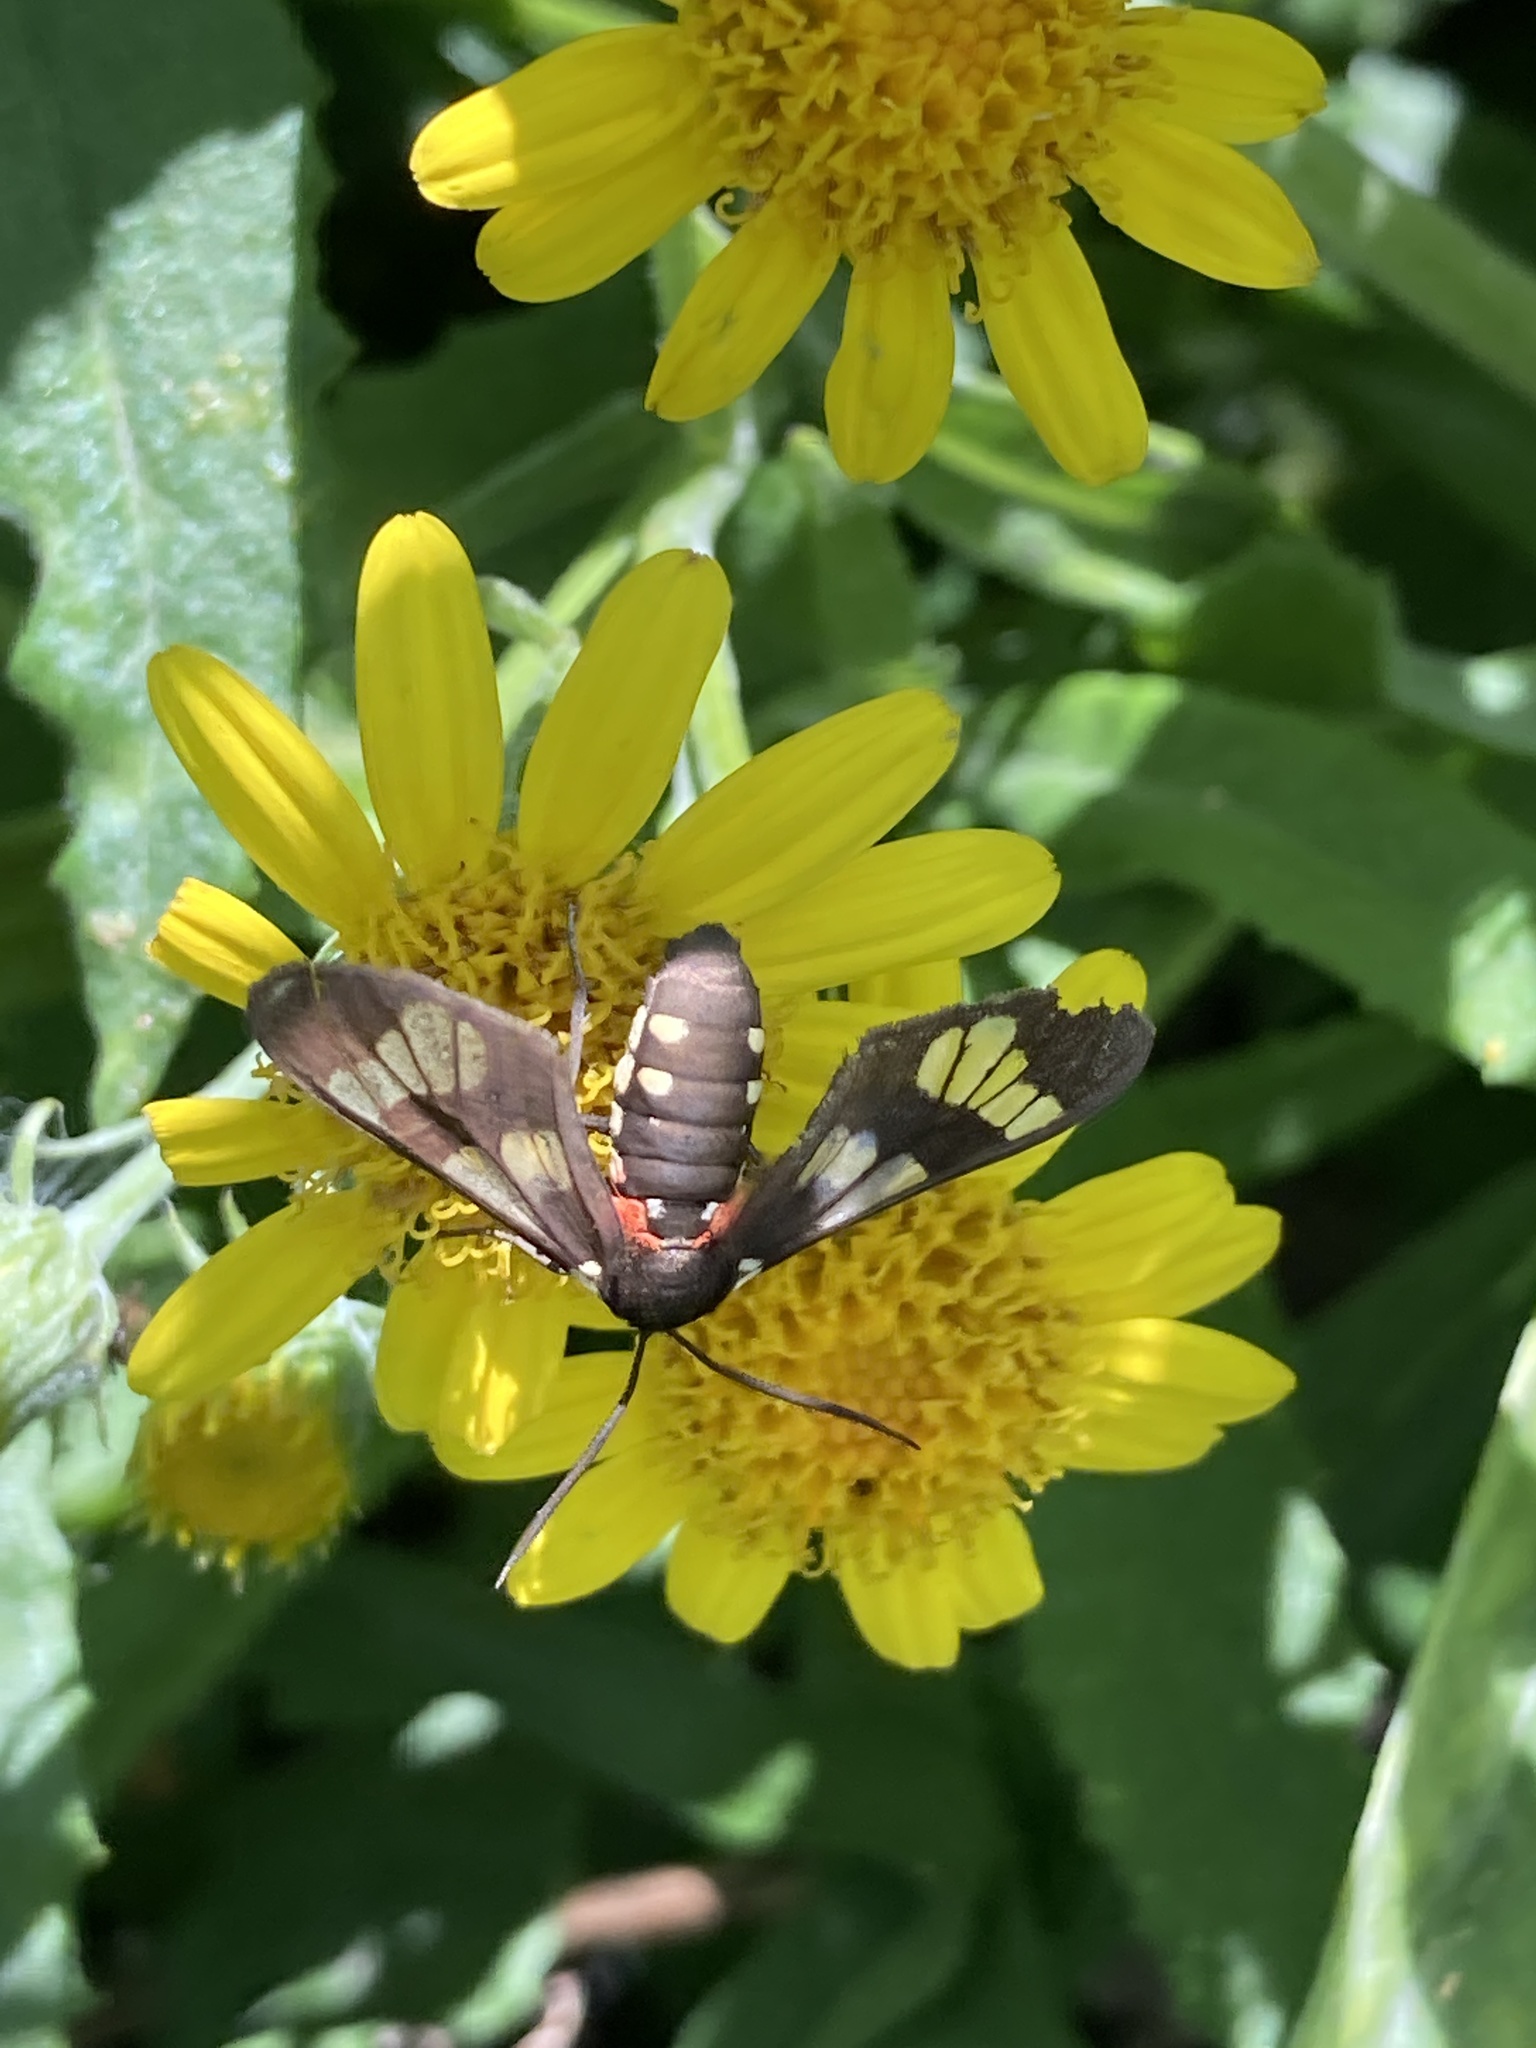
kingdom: Animalia
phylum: Arthropoda
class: Insecta
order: Lepidoptera
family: Erebidae
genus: Eurata
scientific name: Eurata hermione
